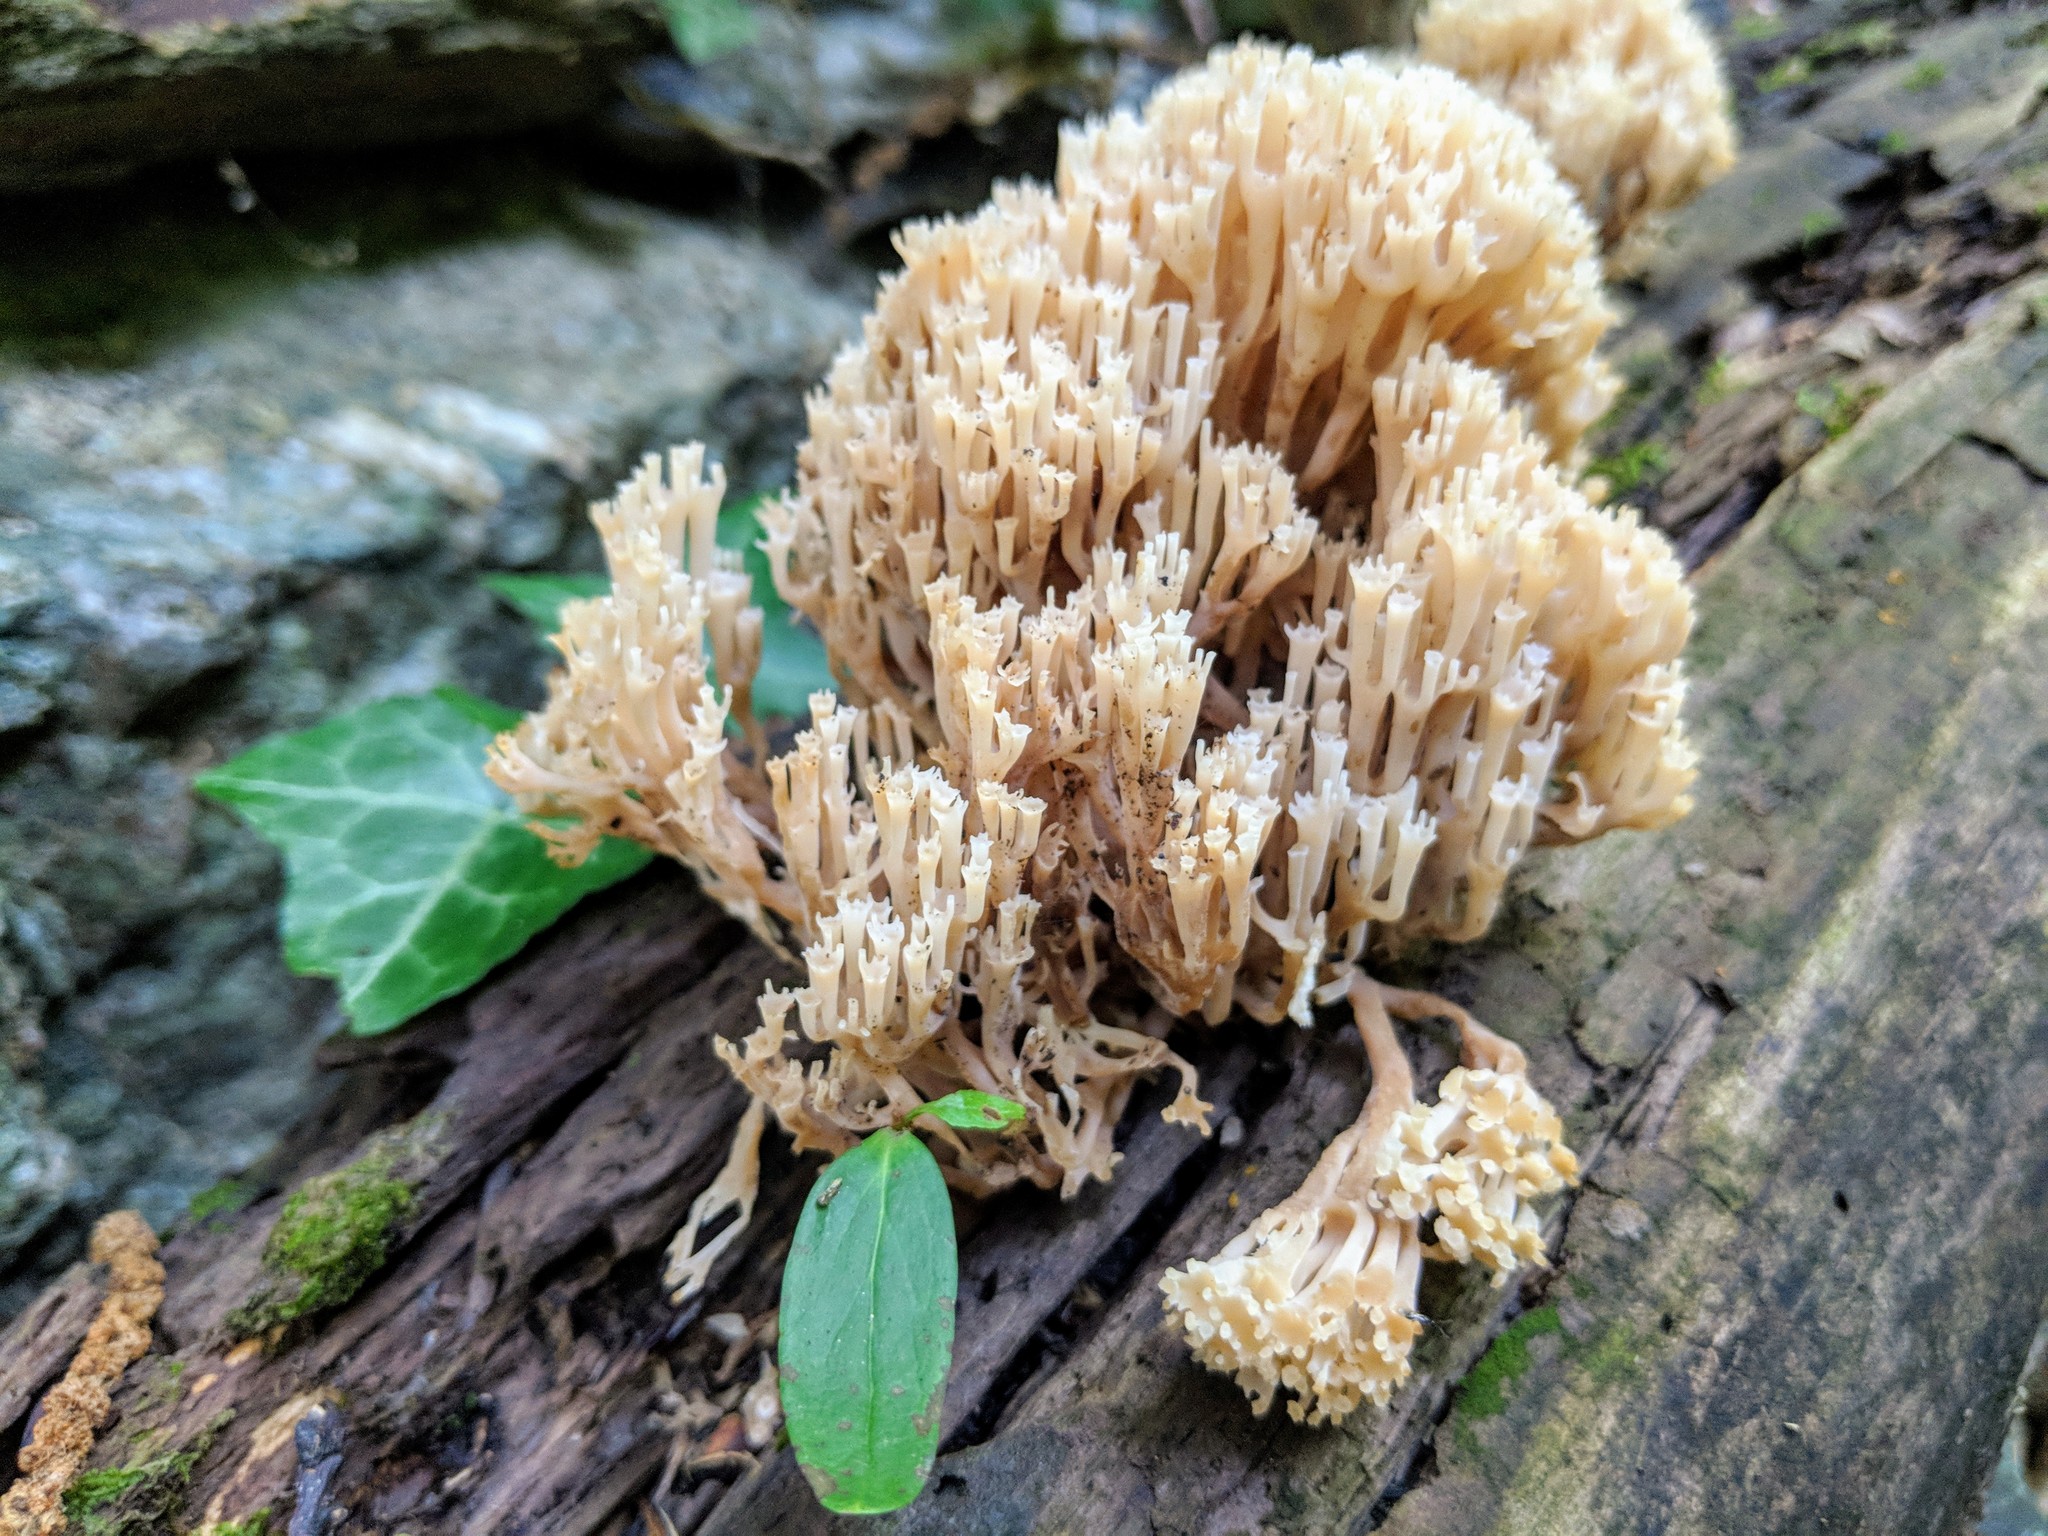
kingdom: Fungi
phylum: Basidiomycota
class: Agaricomycetes
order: Russulales
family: Auriscalpiaceae
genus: Artomyces
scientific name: Artomyces pyxidatus
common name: Crown-tipped coral fungus
